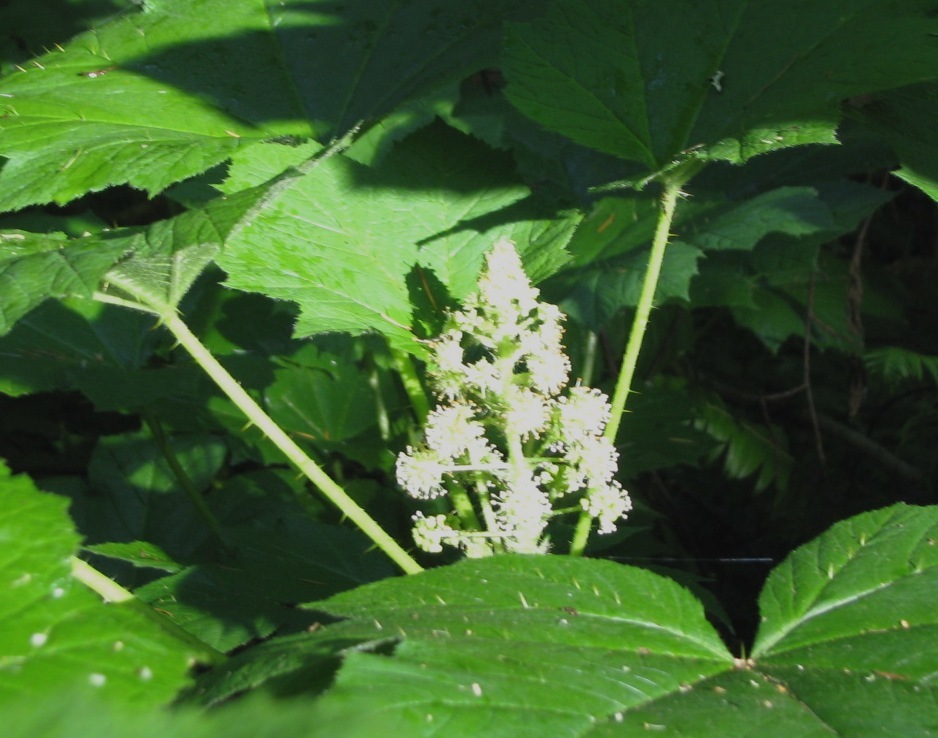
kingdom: Plantae
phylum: Tracheophyta
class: Magnoliopsida
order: Apiales
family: Araliaceae
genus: Oplopanax
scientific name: Oplopanax horridus
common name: Devil's walking-stick
